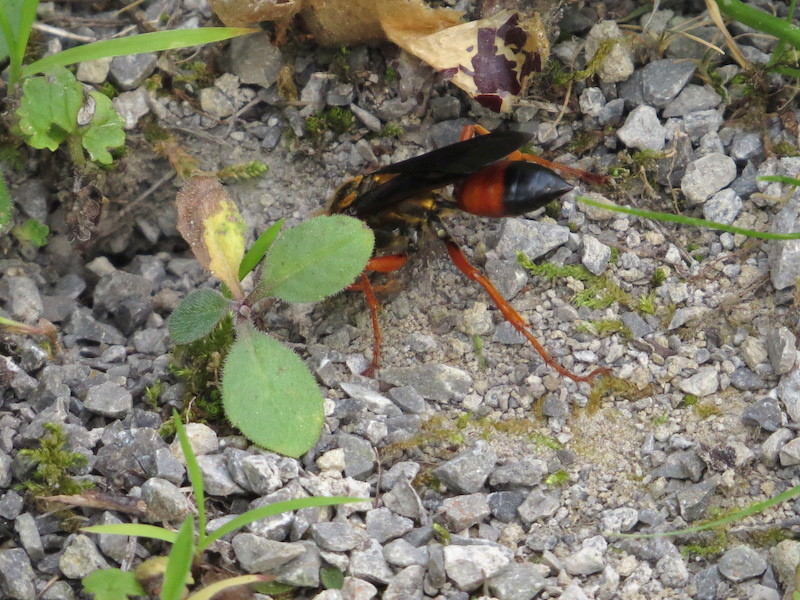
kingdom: Animalia
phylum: Arthropoda
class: Insecta
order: Hymenoptera
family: Sphecidae
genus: Sphex
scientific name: Sphex ichneumoneus
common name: Great golden digger wasp
